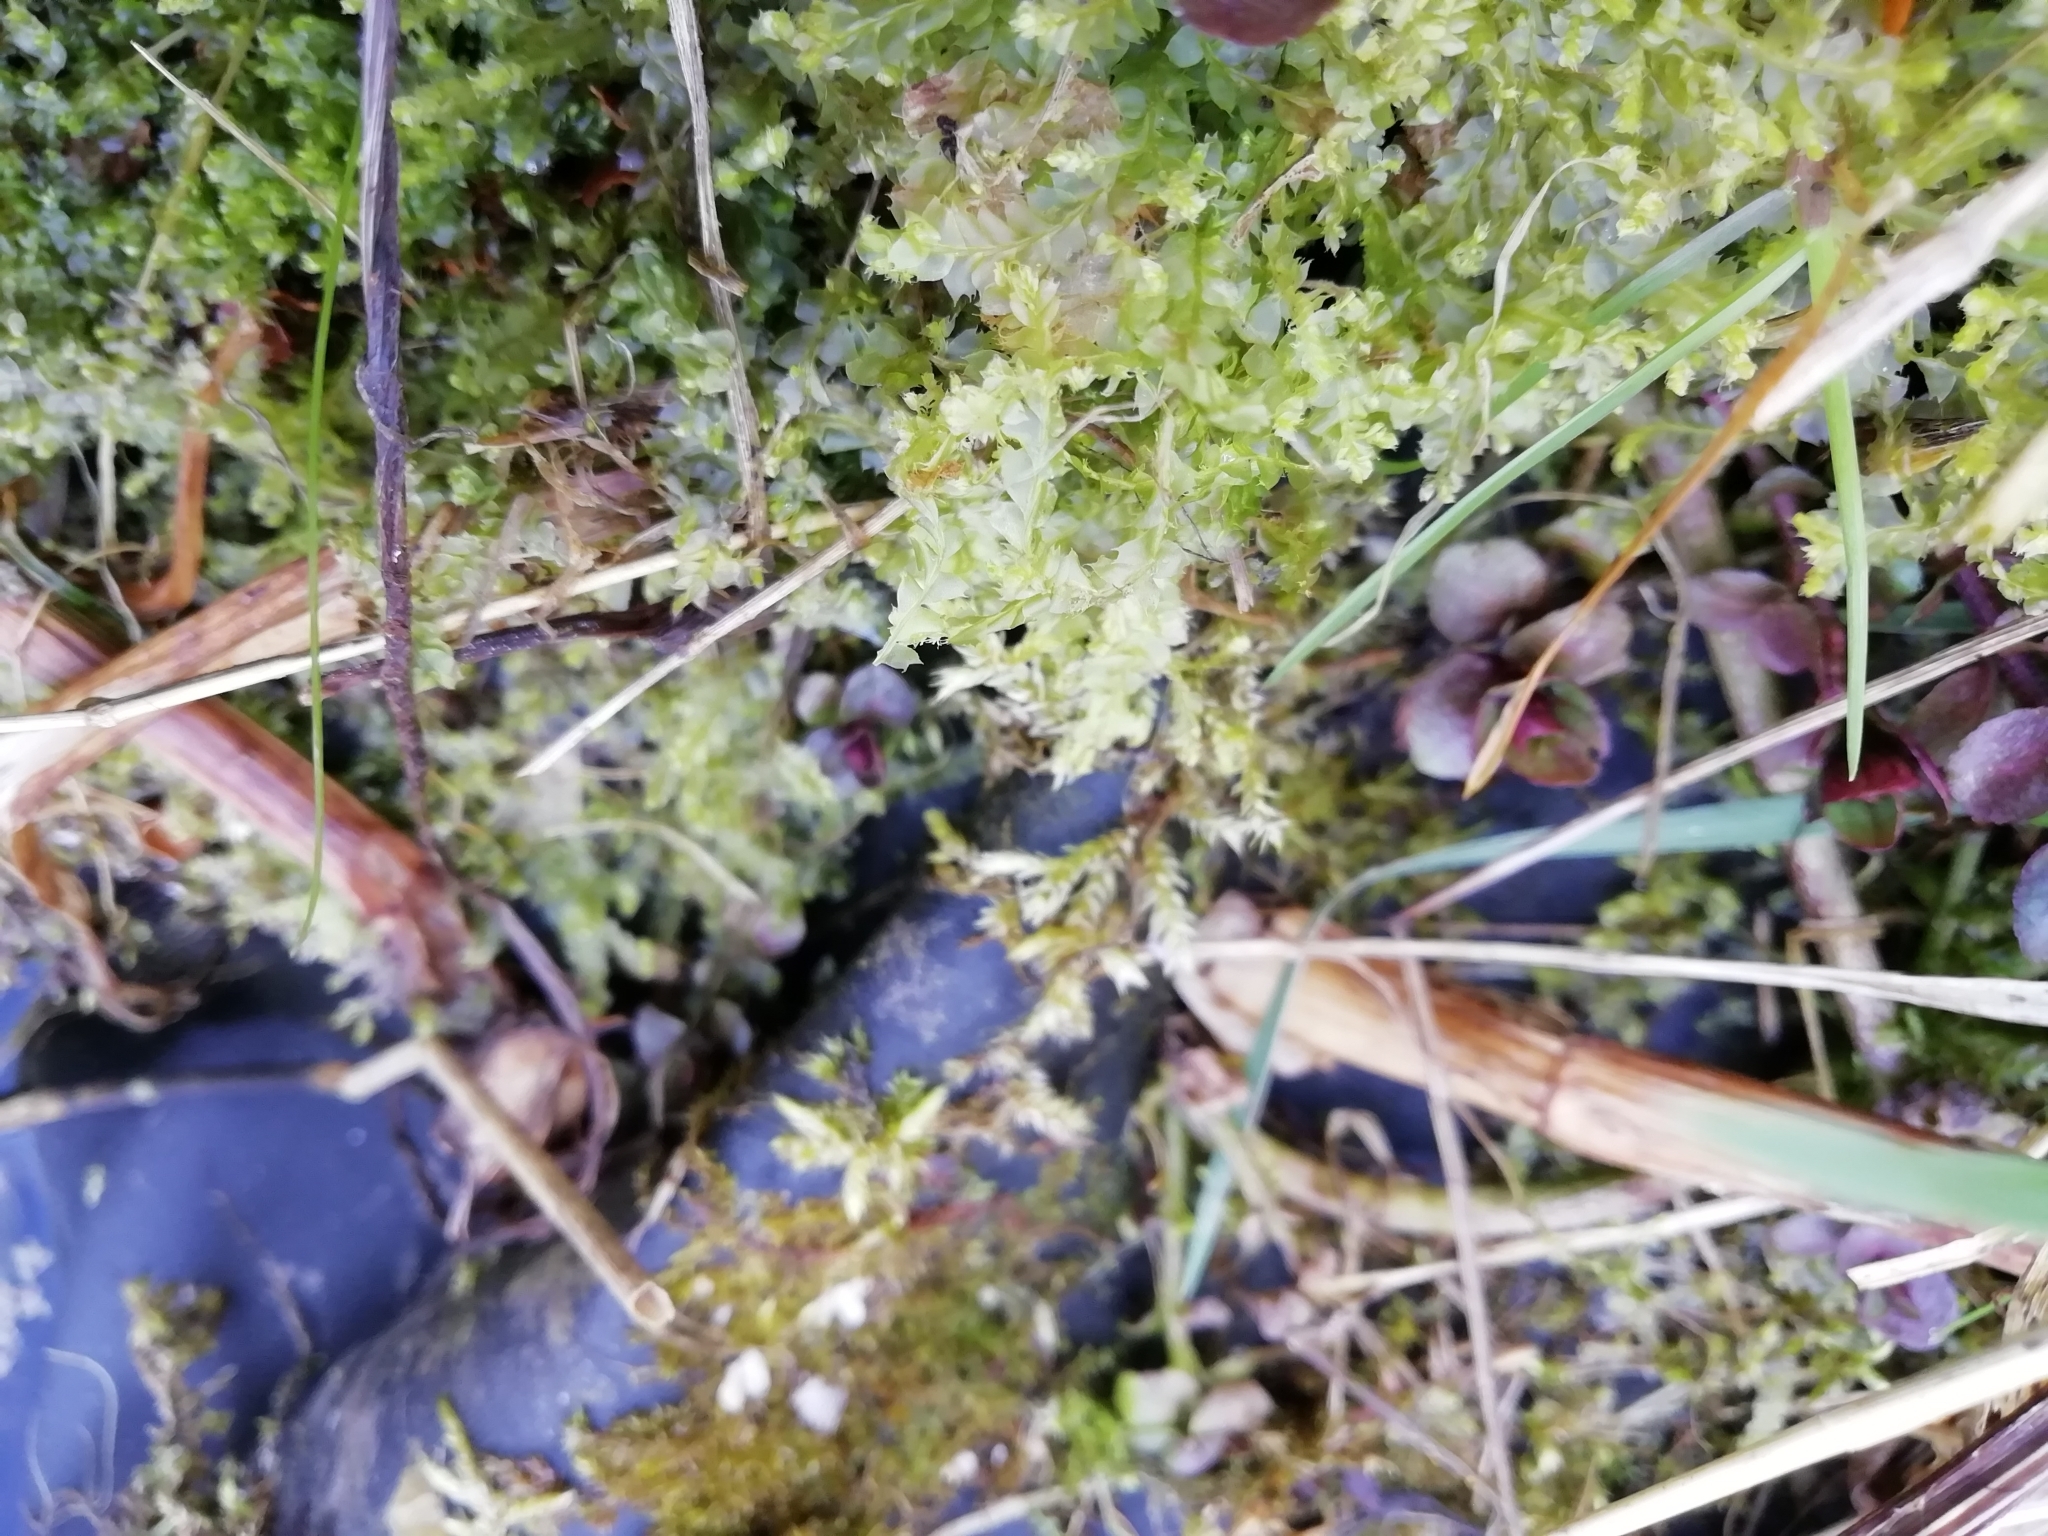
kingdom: Plantae
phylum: Marchantiophyta
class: Jungermanniopsida
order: Jungermanniales
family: Lophocoleaceae
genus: Lophocolea
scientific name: Lophocolea bidentata
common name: Bifid crestwort
